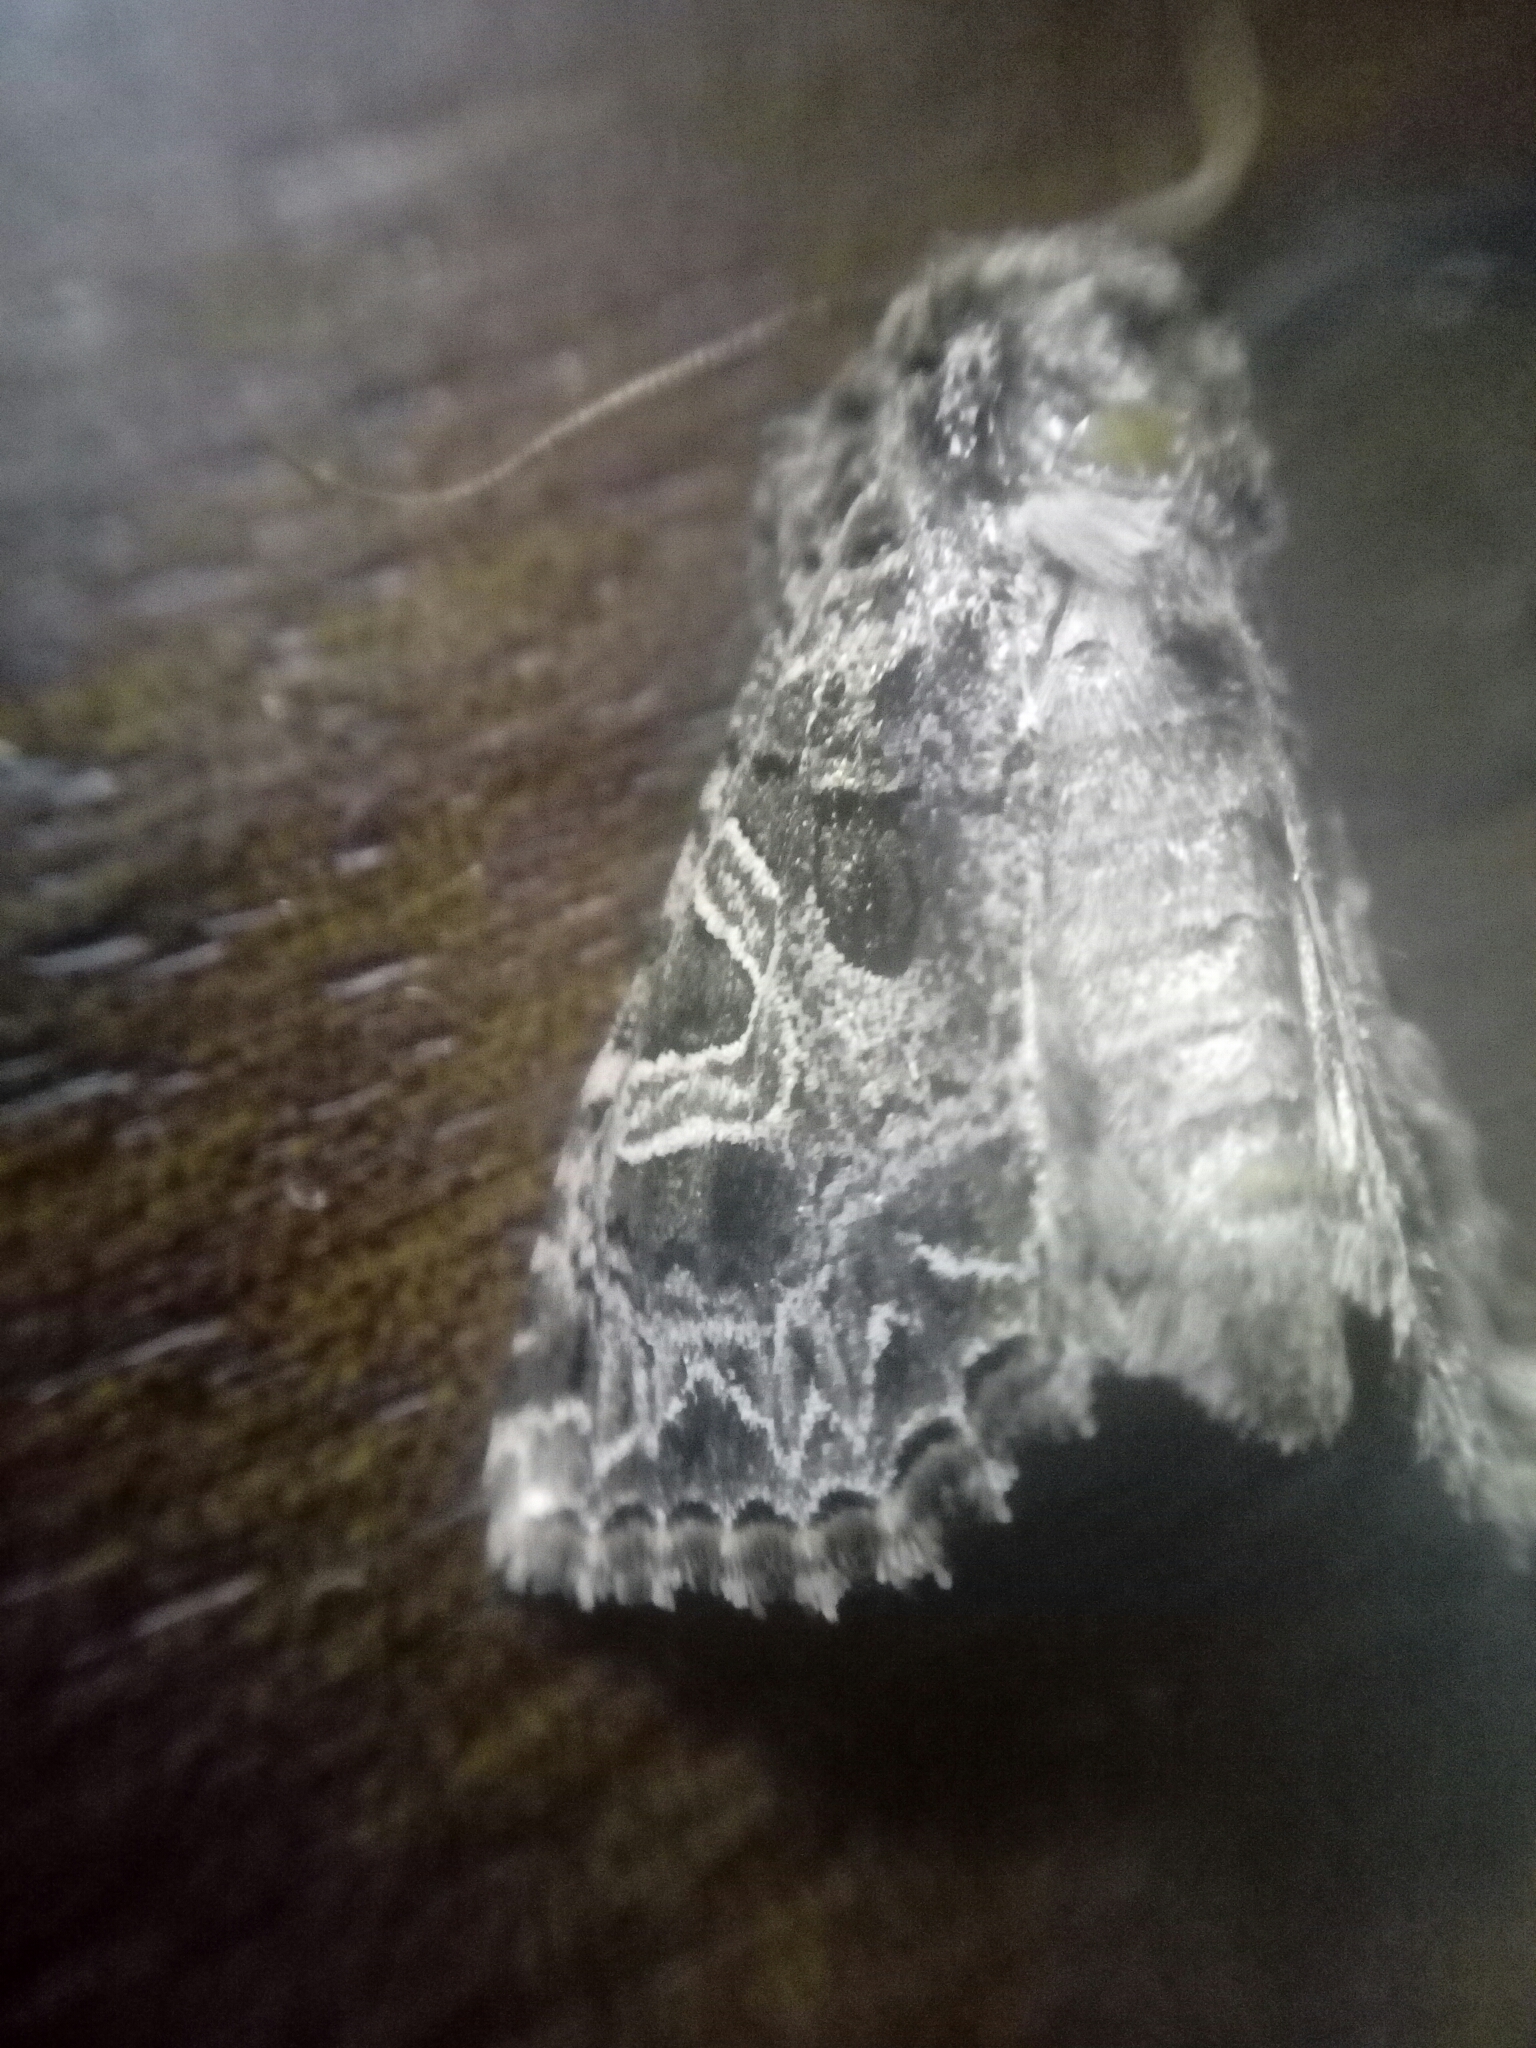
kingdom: Animalia
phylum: Arthropoda
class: Insecta
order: Lepidoptera
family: Noctuidae
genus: Sideridis
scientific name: Sideridis rivularis
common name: Campion
